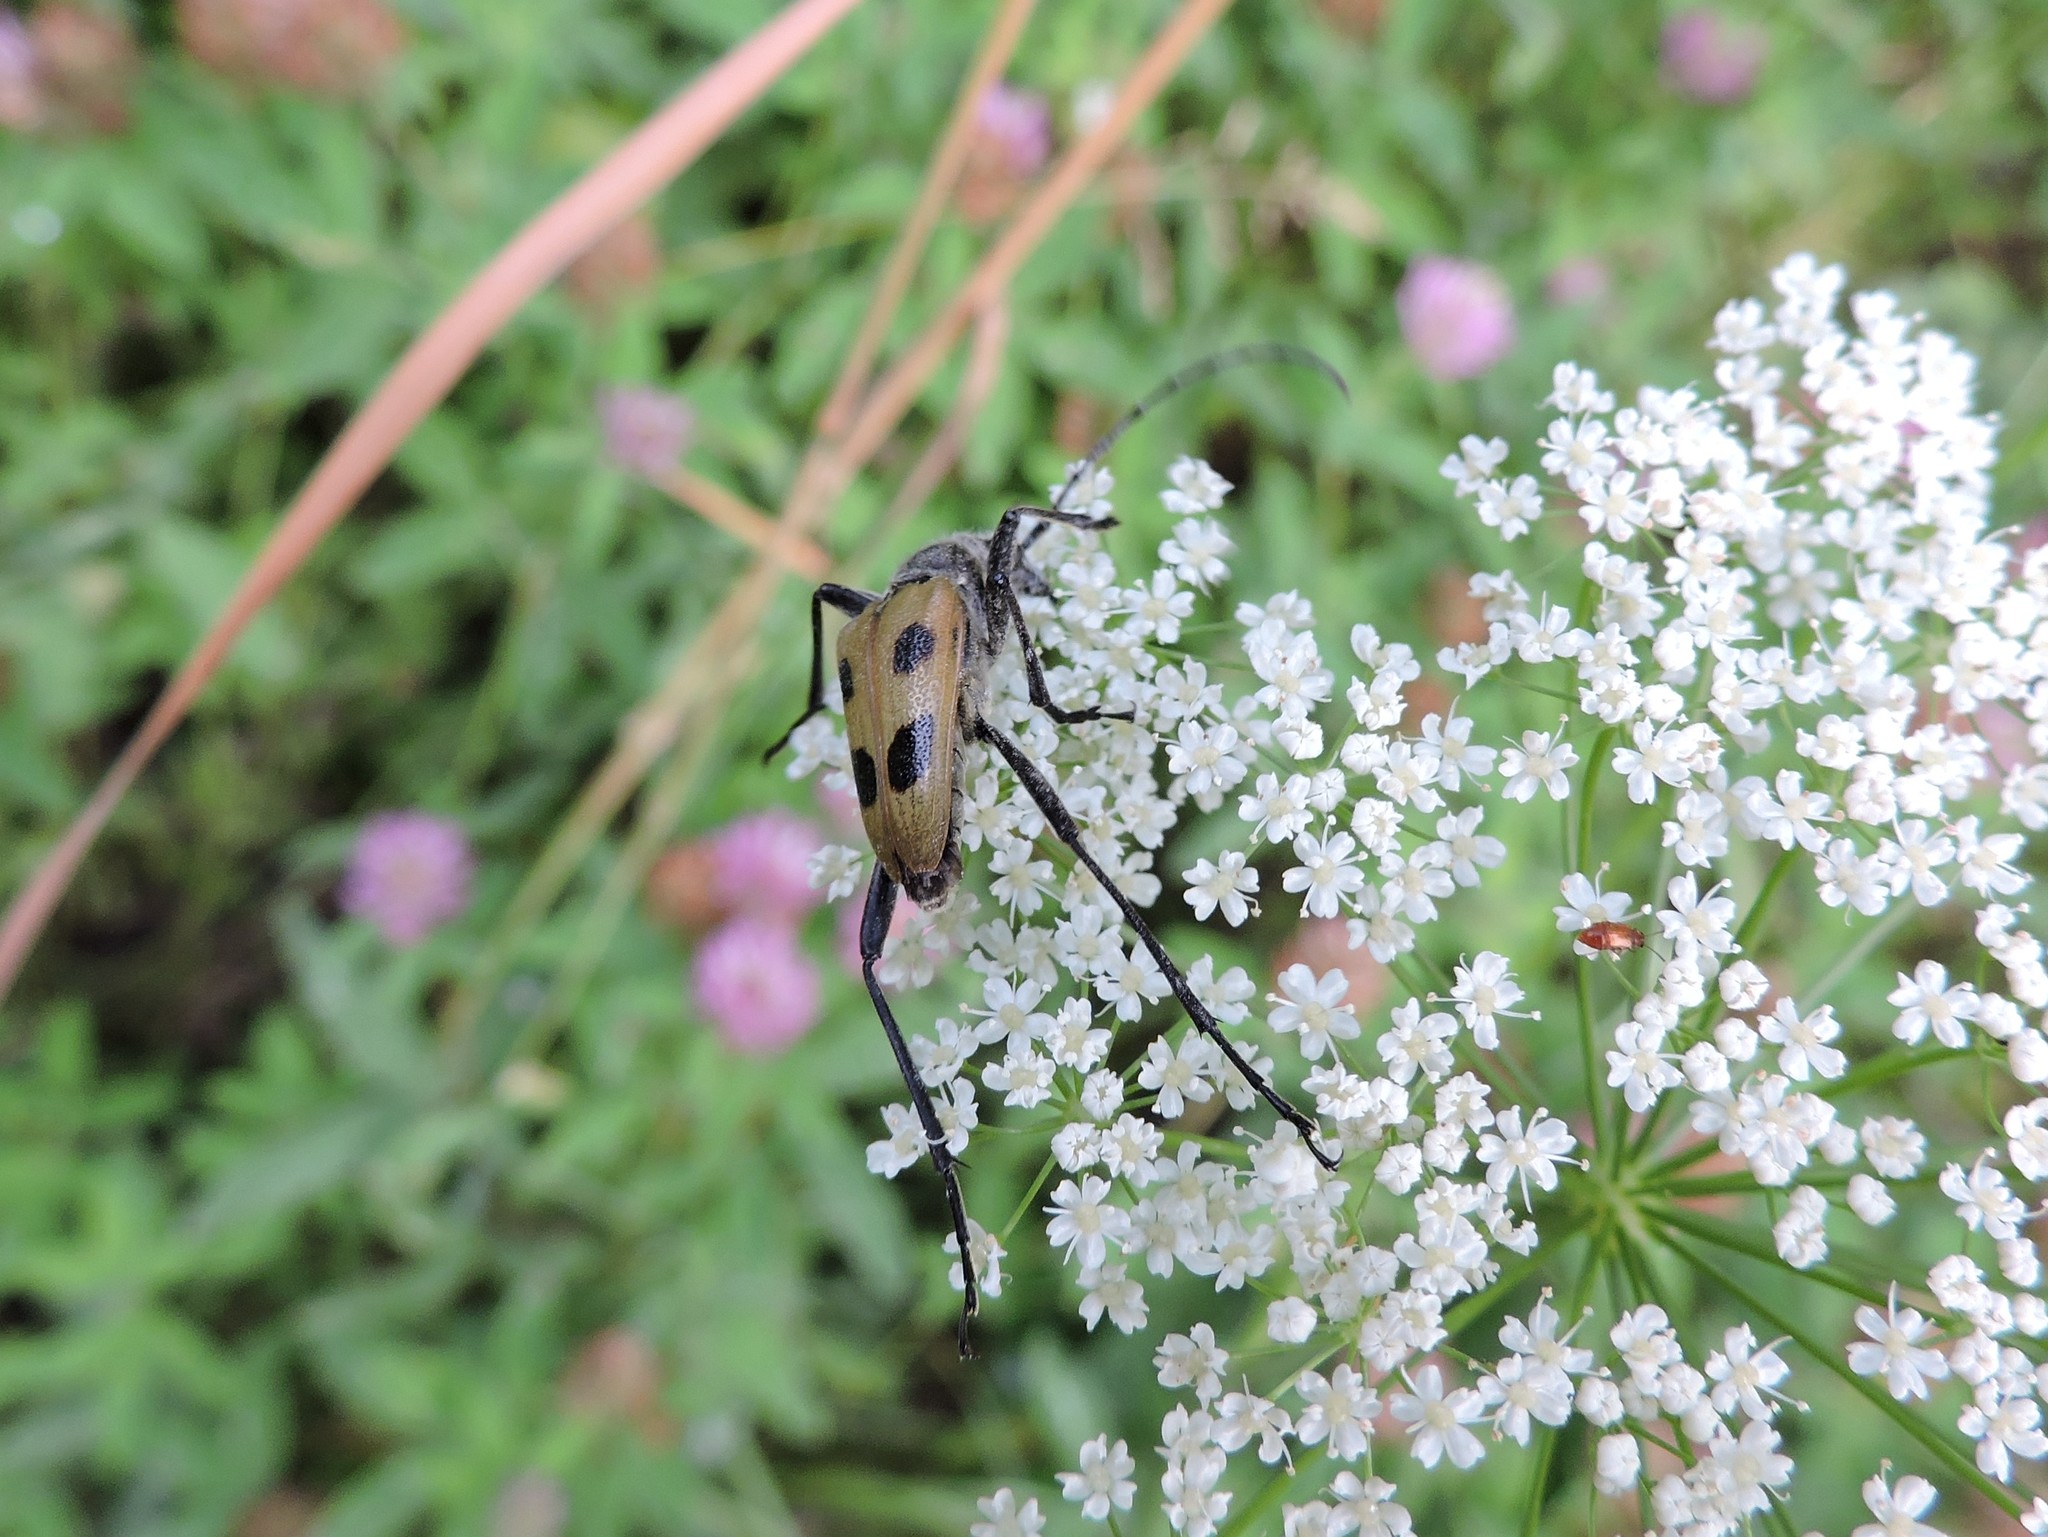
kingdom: Animalia
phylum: Arthropoda
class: Insecta
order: Coleoptera
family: Cerambycidae
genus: Pachyta
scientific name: Pachyta quadrimaculata
